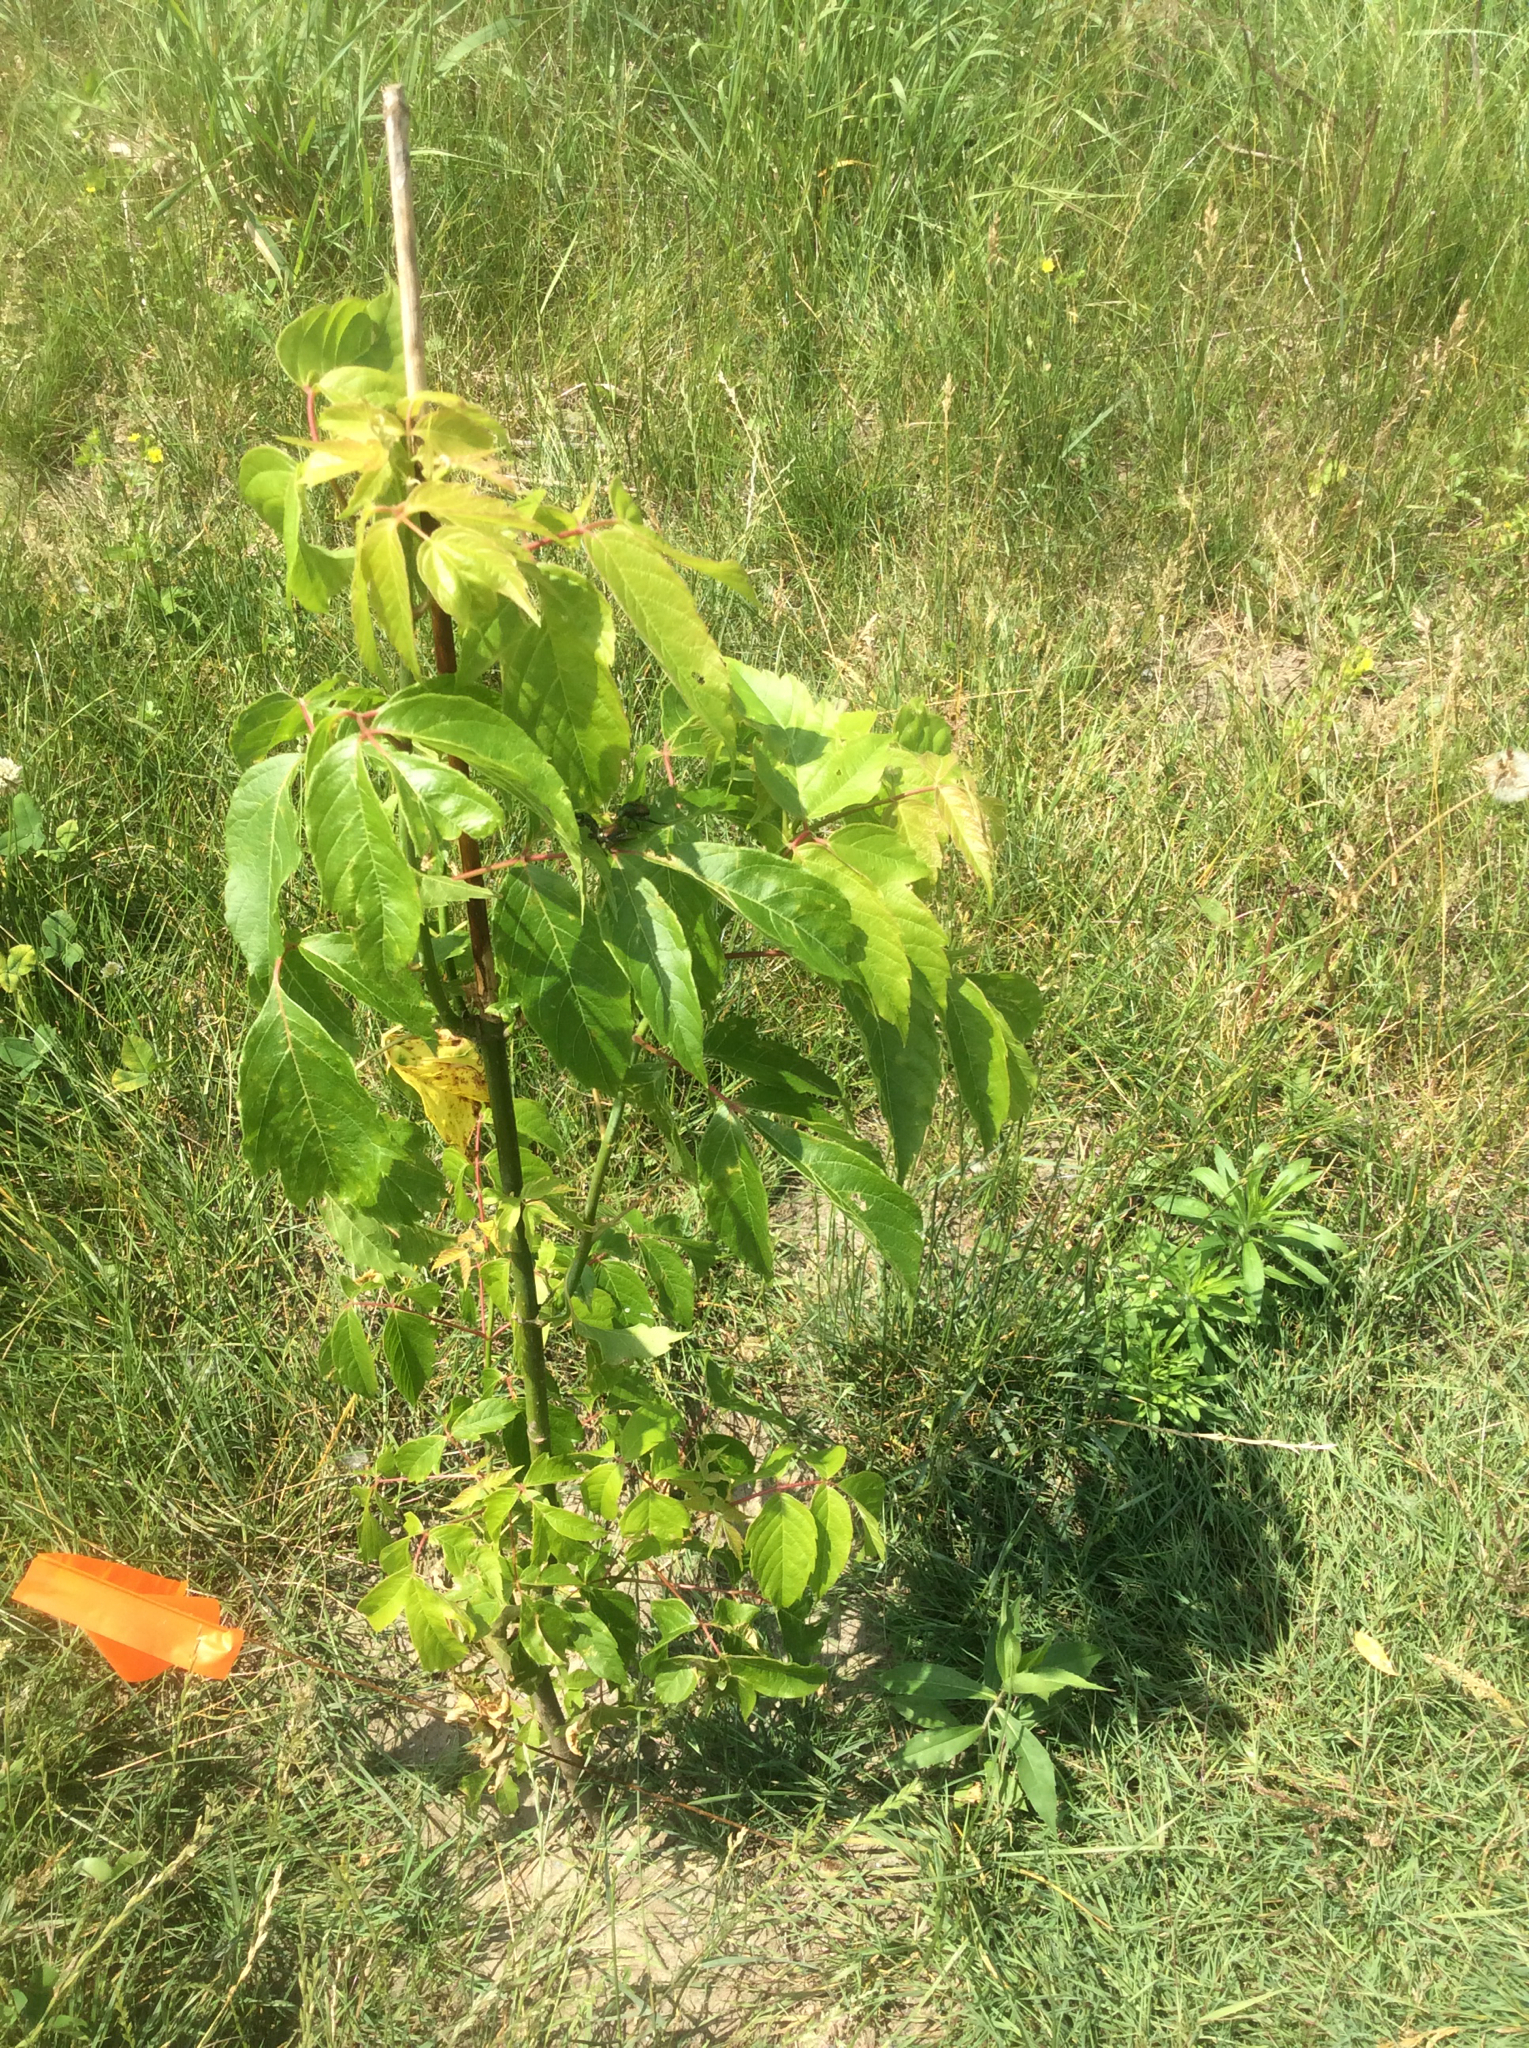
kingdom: Plantae
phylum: Tracheophyta
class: Magnoliopsida
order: Sapindales
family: Sapindaceae
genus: Acer
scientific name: Acer negundo
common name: Ashleaf maple
